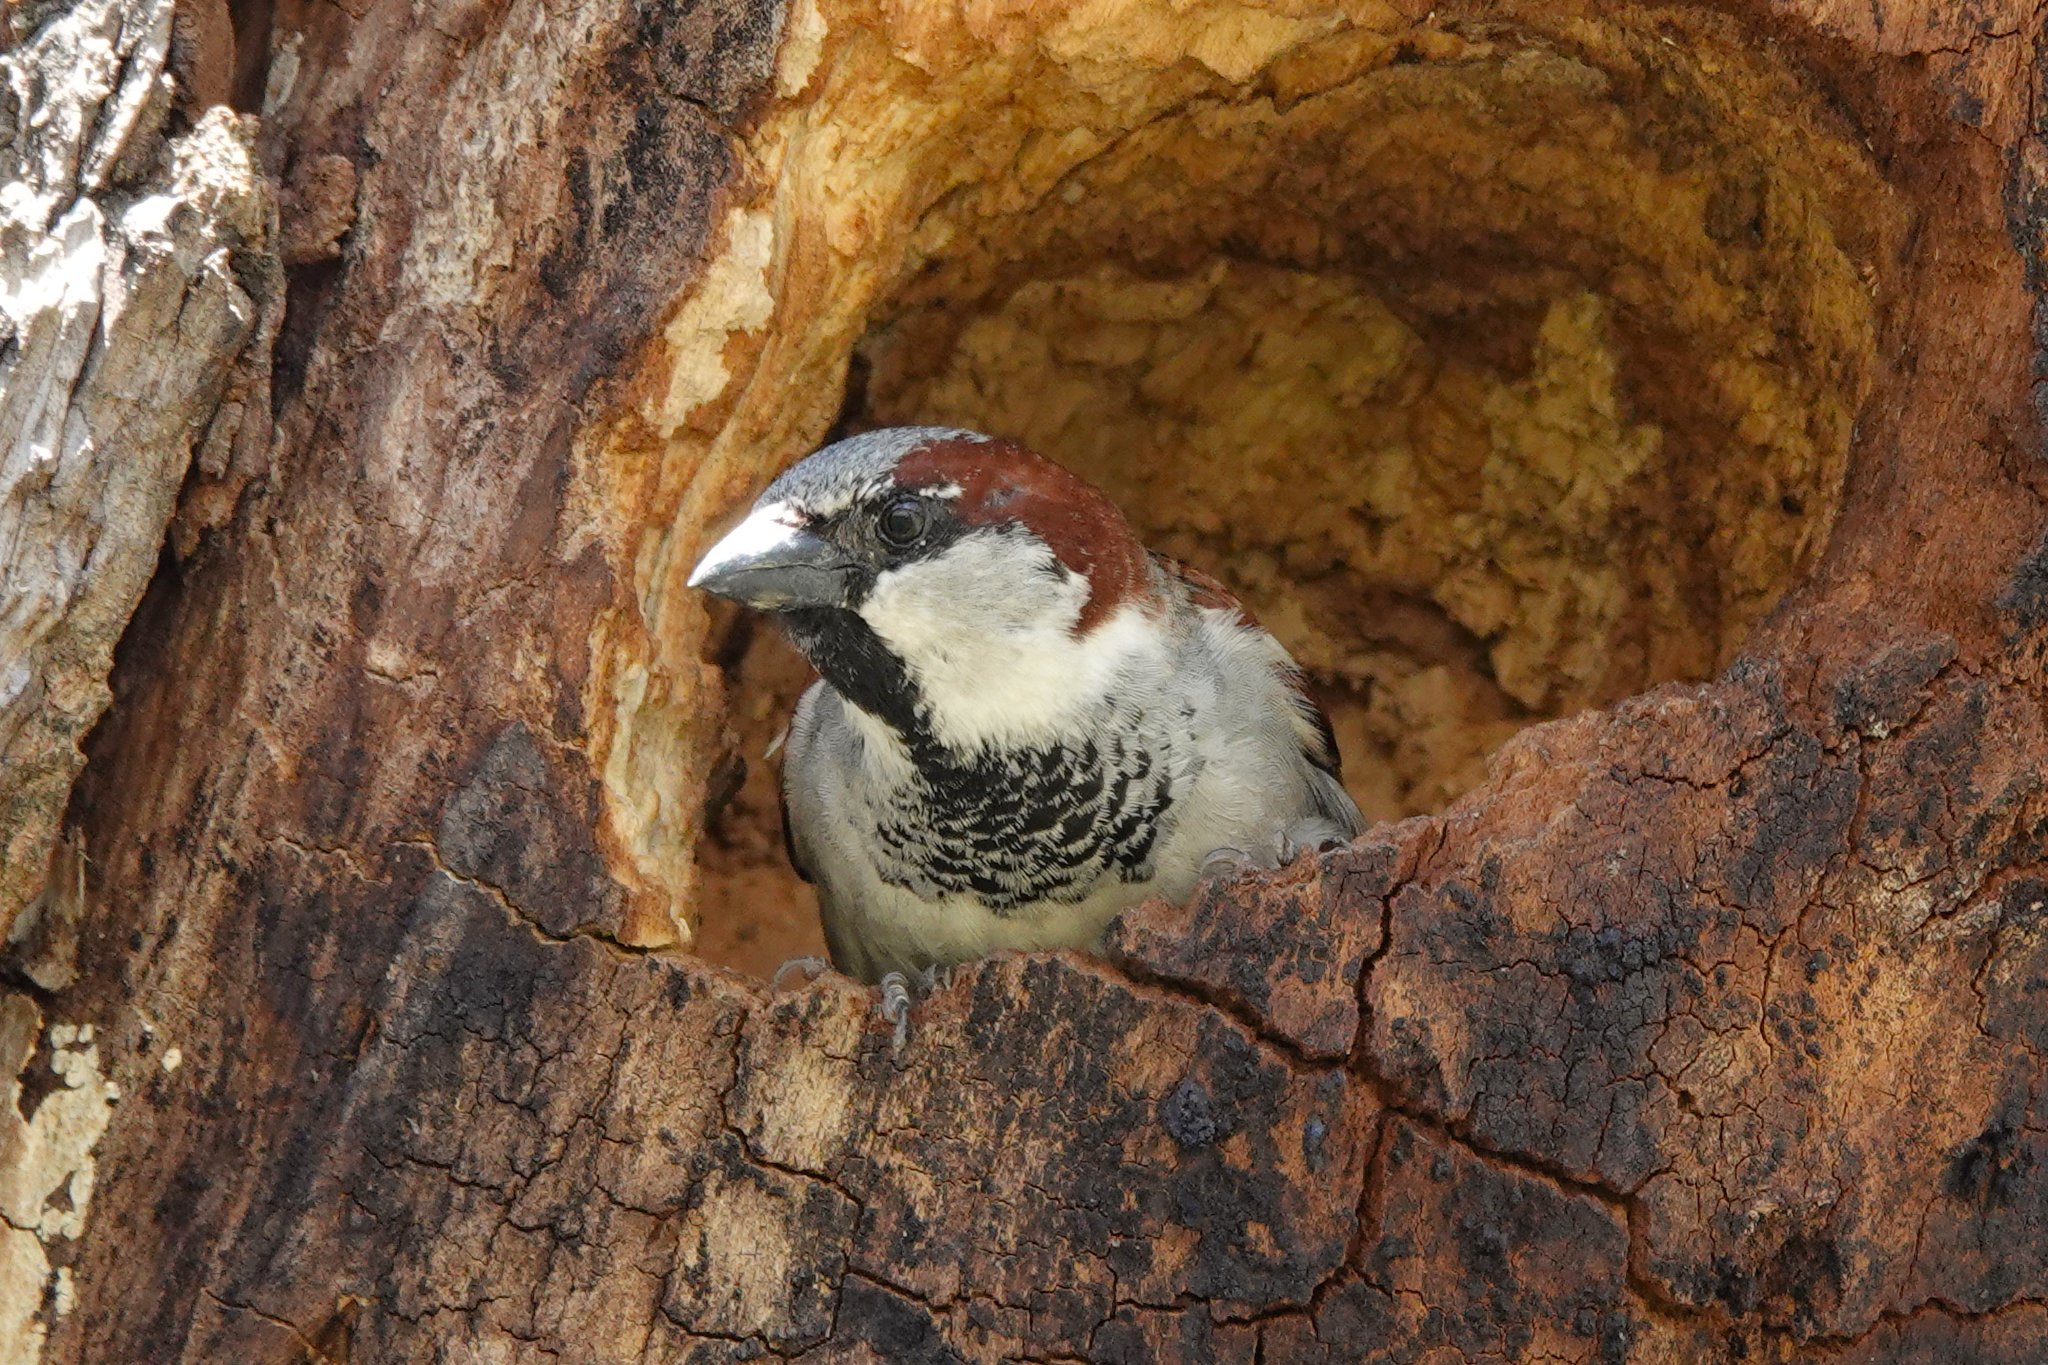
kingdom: Animalia
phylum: Chordata
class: Aves
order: Passeriformes
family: Passeridae
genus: Passer
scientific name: Passer domesticus
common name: House sparrow
